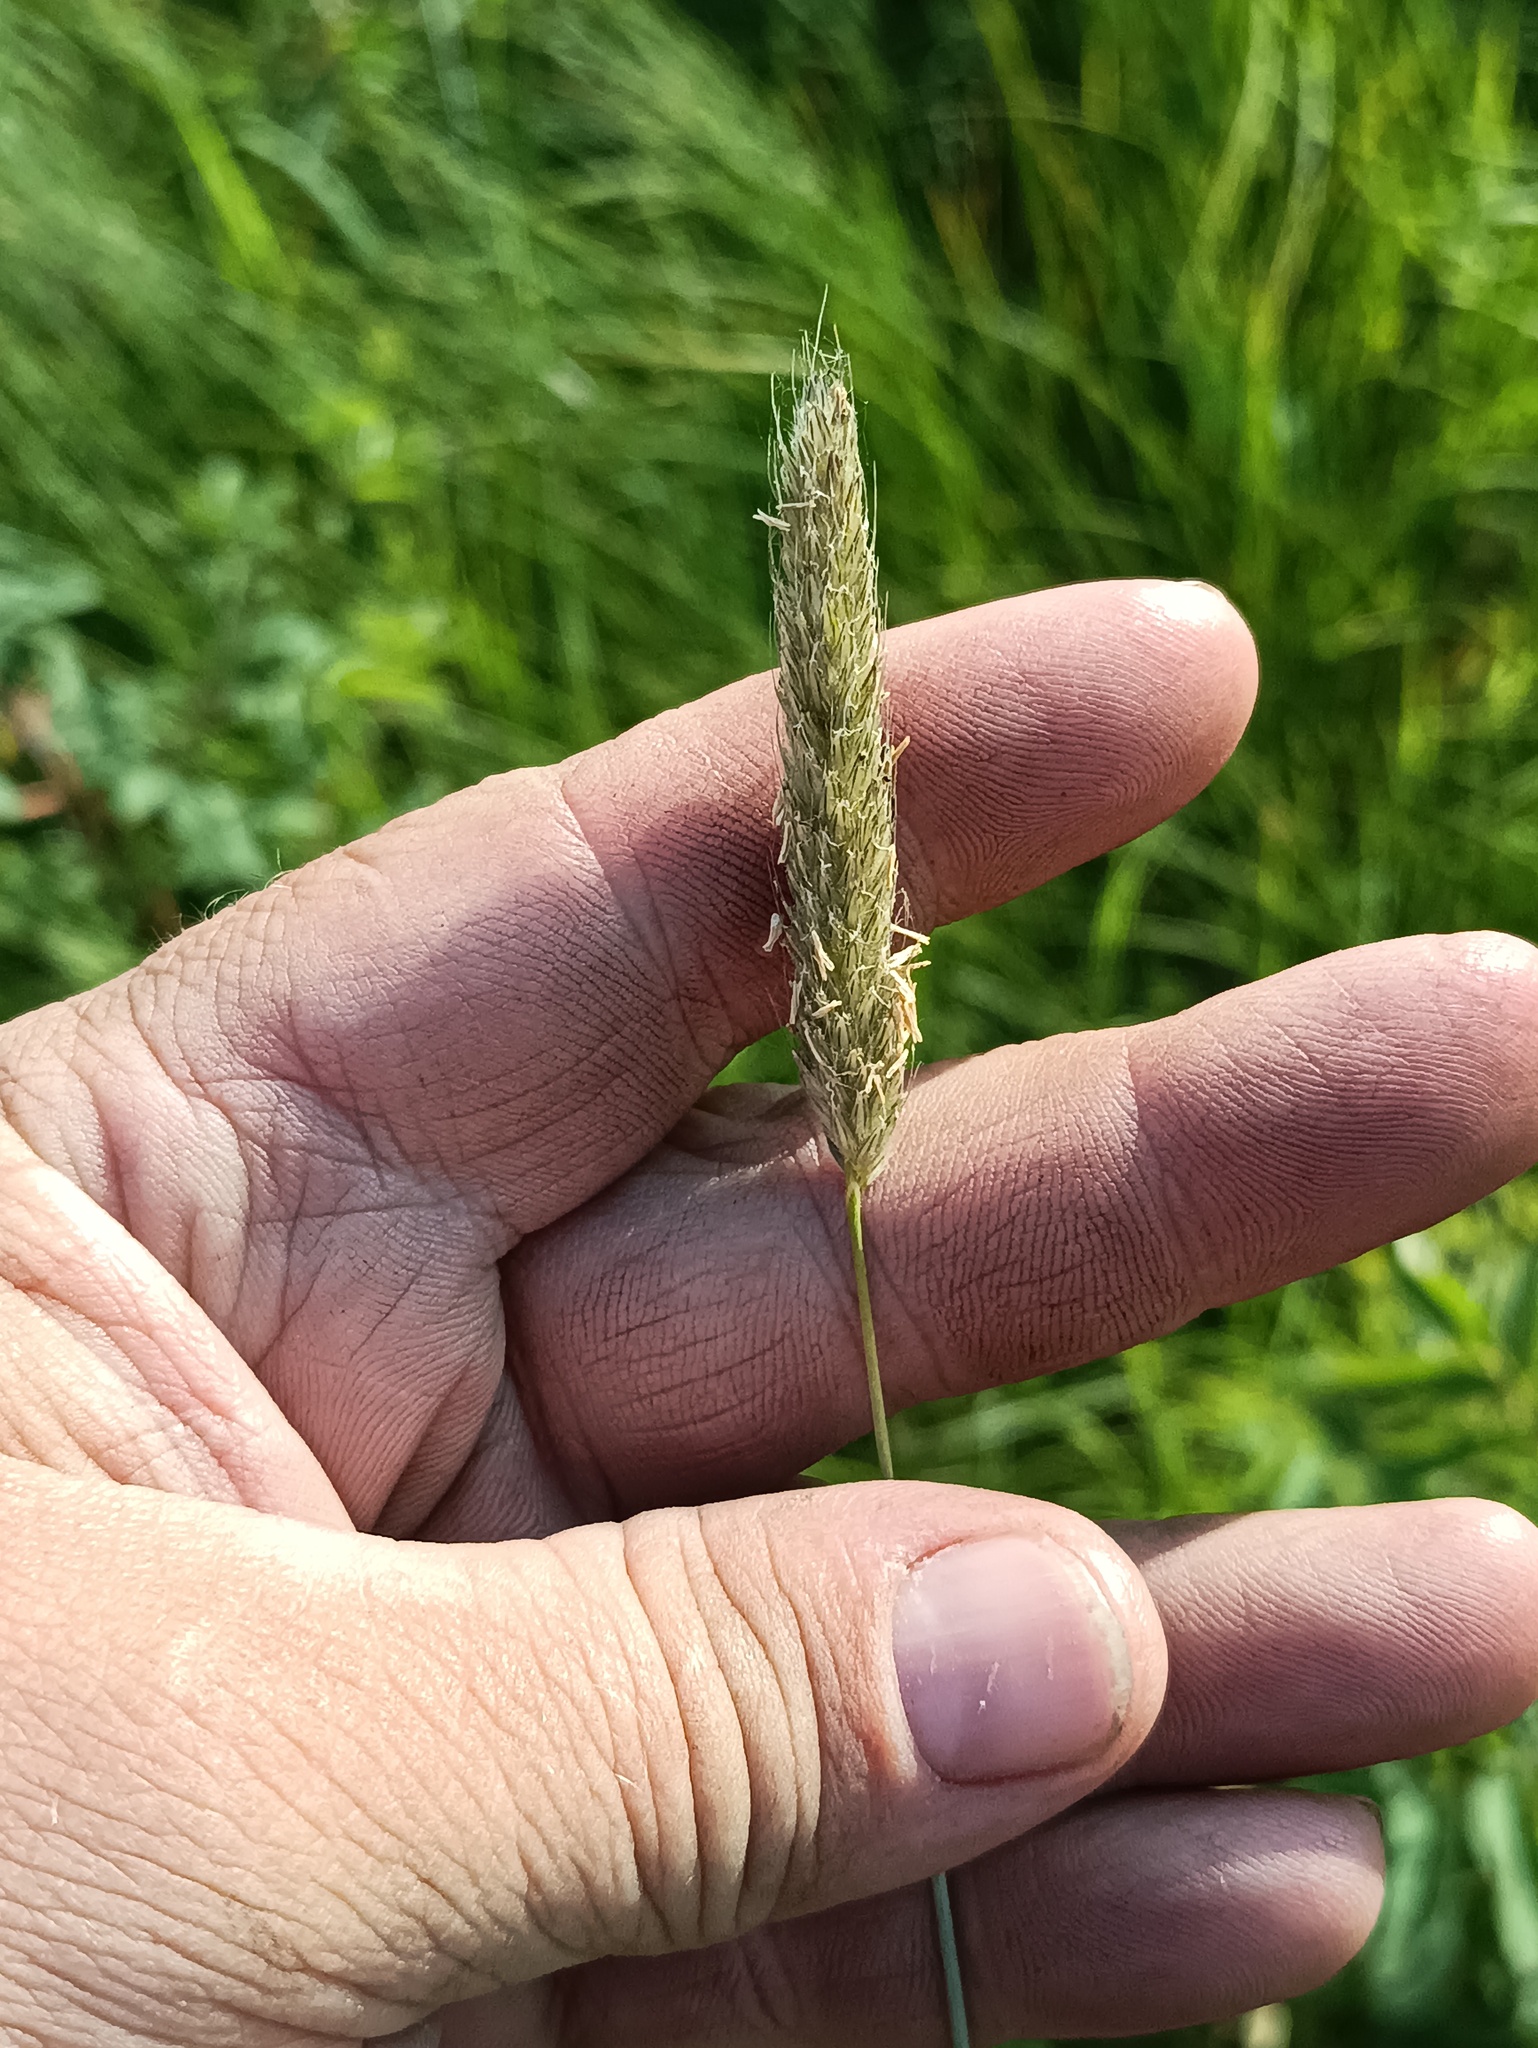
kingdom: Plantae
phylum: Tracheophyta
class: Liliopsida
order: Poales
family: Poaceae
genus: Alopecurus
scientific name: Alopecurus pratensis
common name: Meadow foxtail
